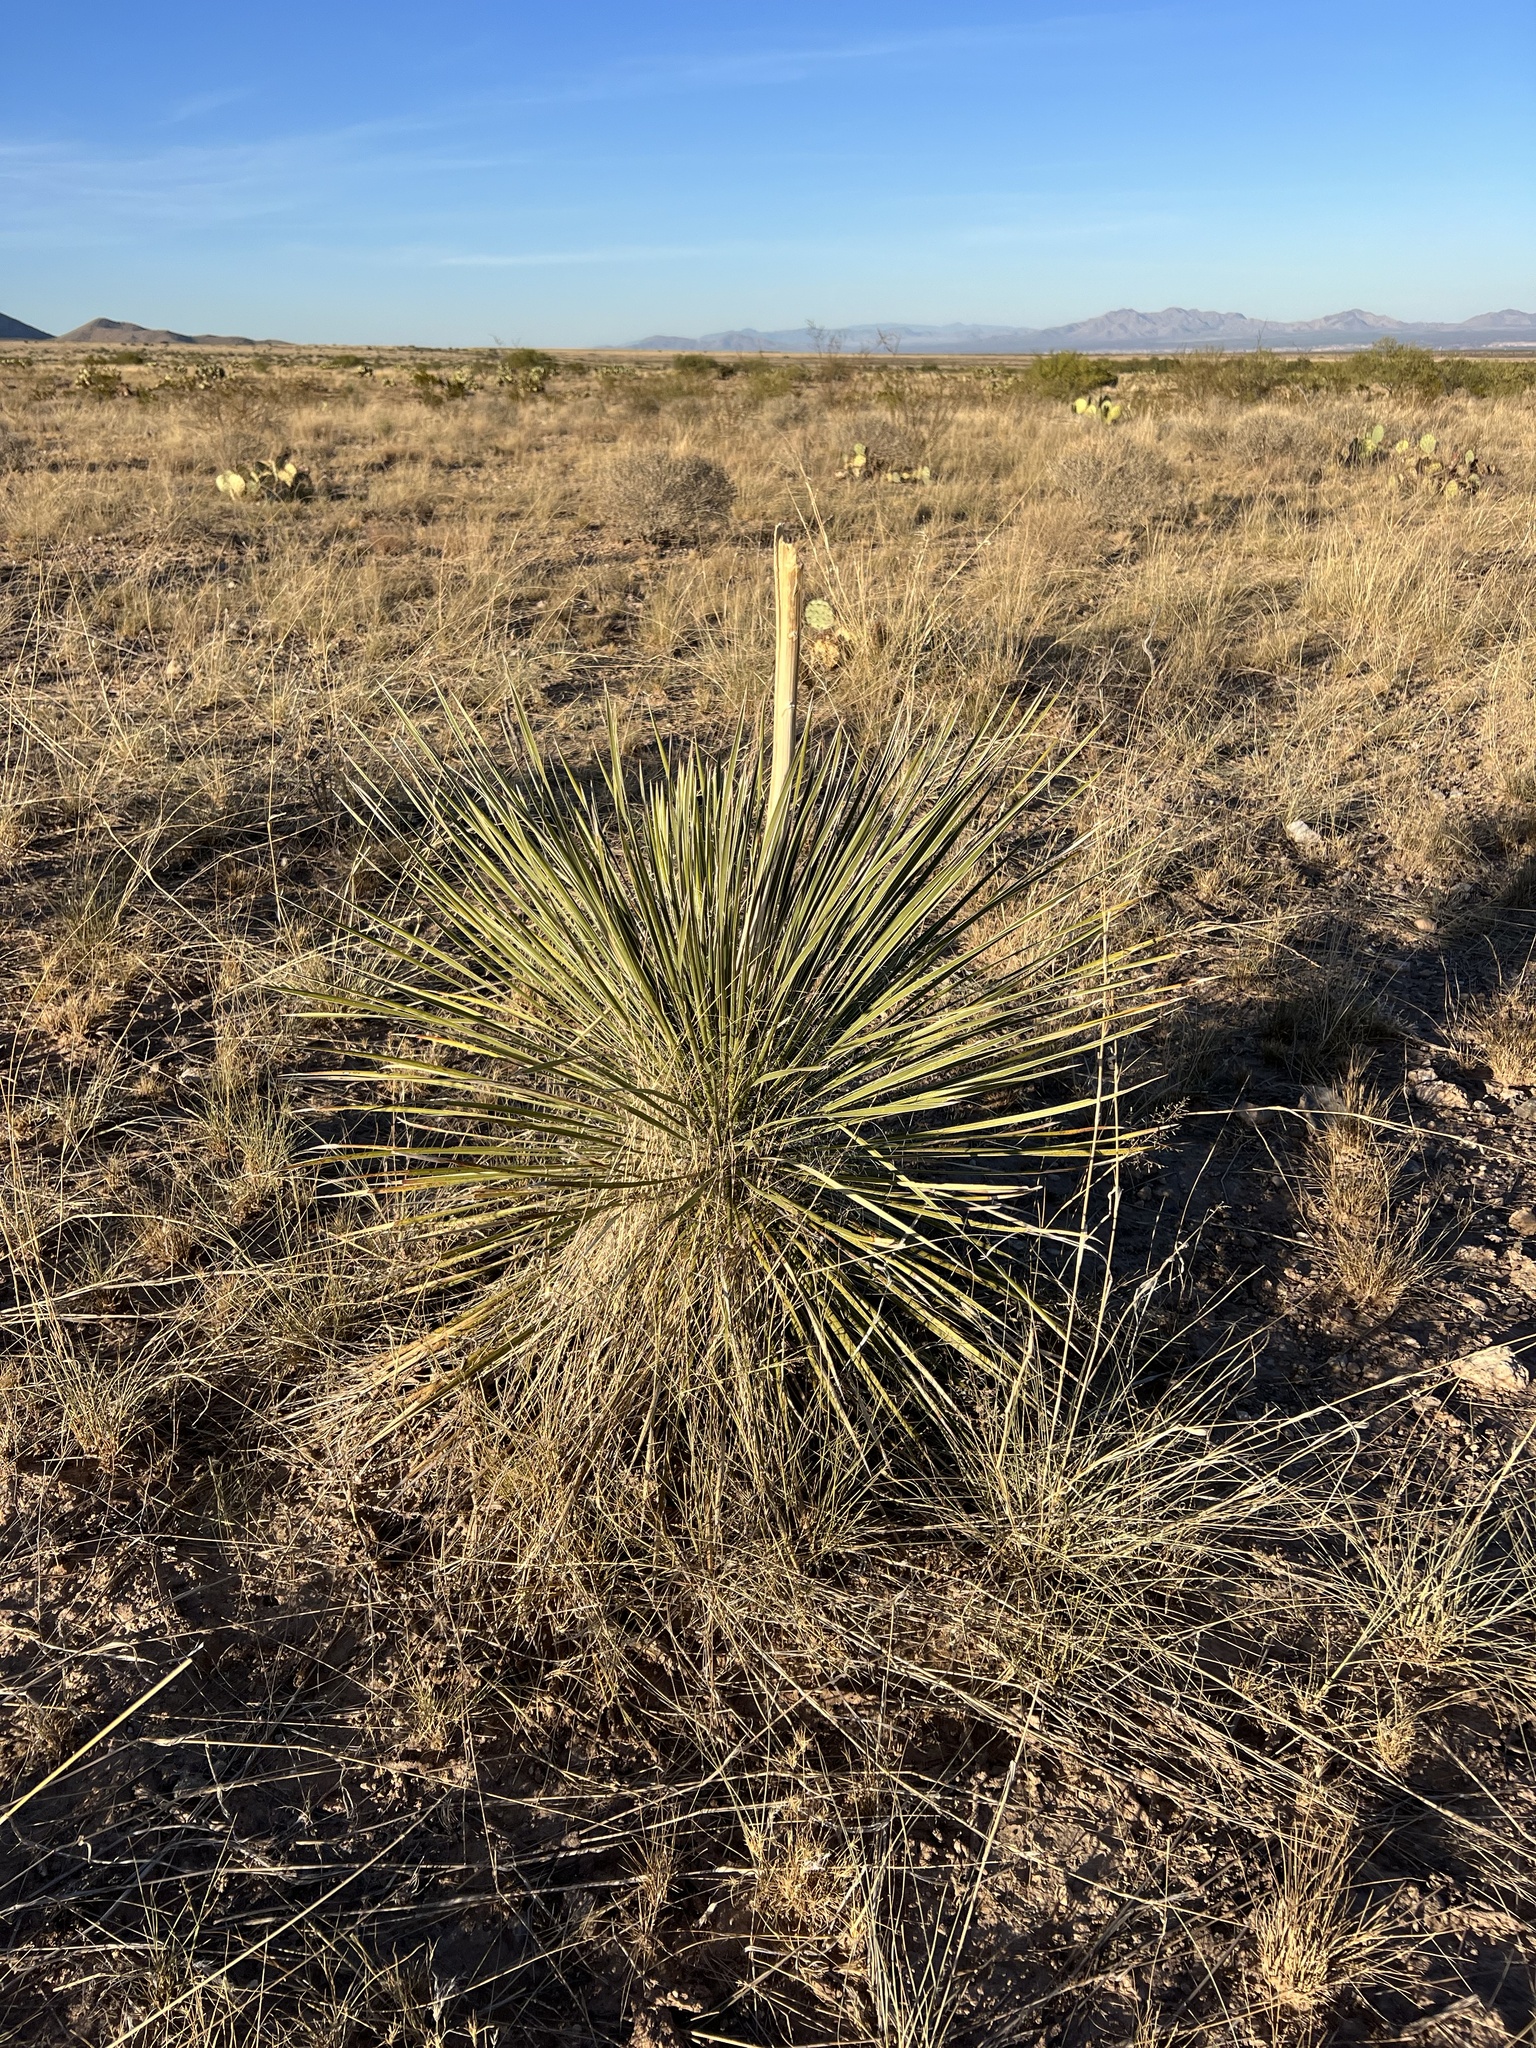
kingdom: Plantae
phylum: Tracheophyta
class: Liliopsida
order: Asparagales
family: Asparagaceae
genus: Yucca
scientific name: Yucca elata
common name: Palmella
